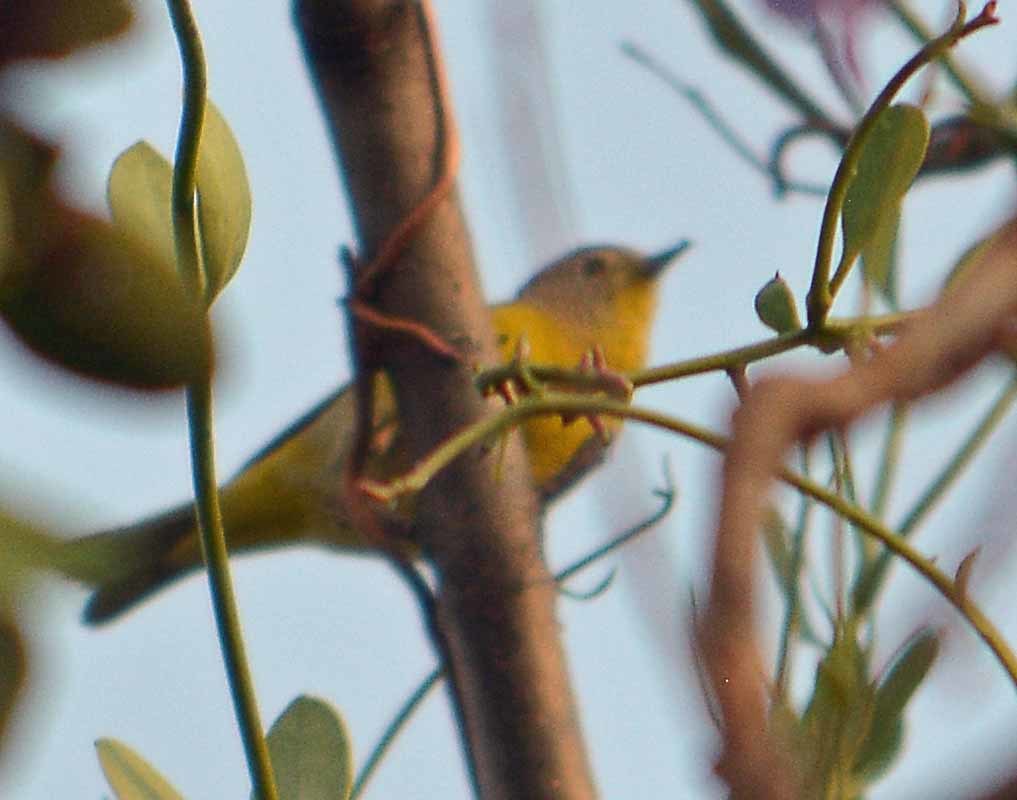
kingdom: Animalia
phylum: Chordata
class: Aves
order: Passeriformes
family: Parulidae
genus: Leiothlypis
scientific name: Leiothlypis ruficapilla
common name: Nashville warbler
